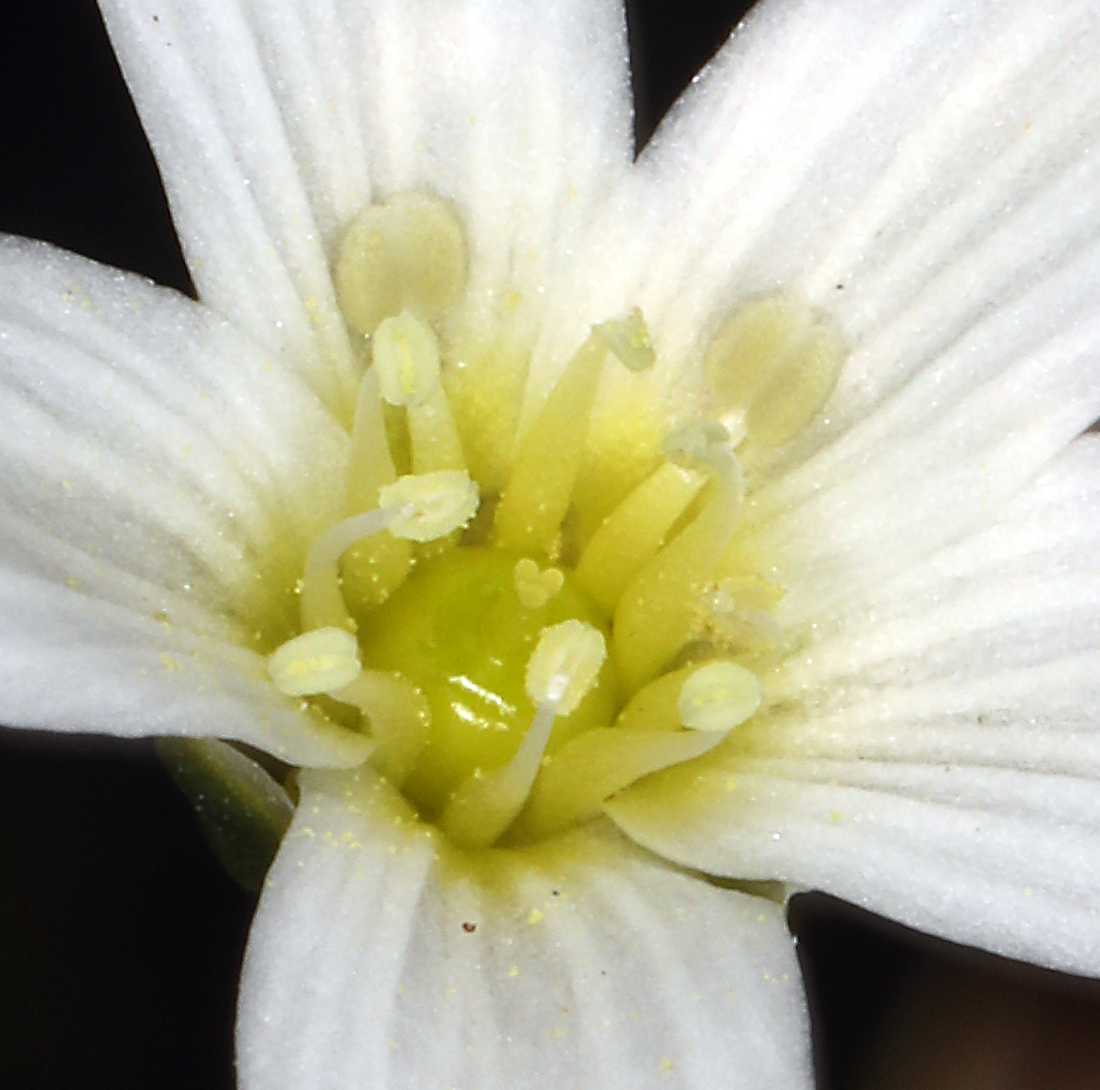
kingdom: Plantae
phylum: Tracheophyta
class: Magnoliopsida
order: Caryophyllales
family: Caryophyllaceae
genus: Eremogone
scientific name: Eremogone ferrisiae
